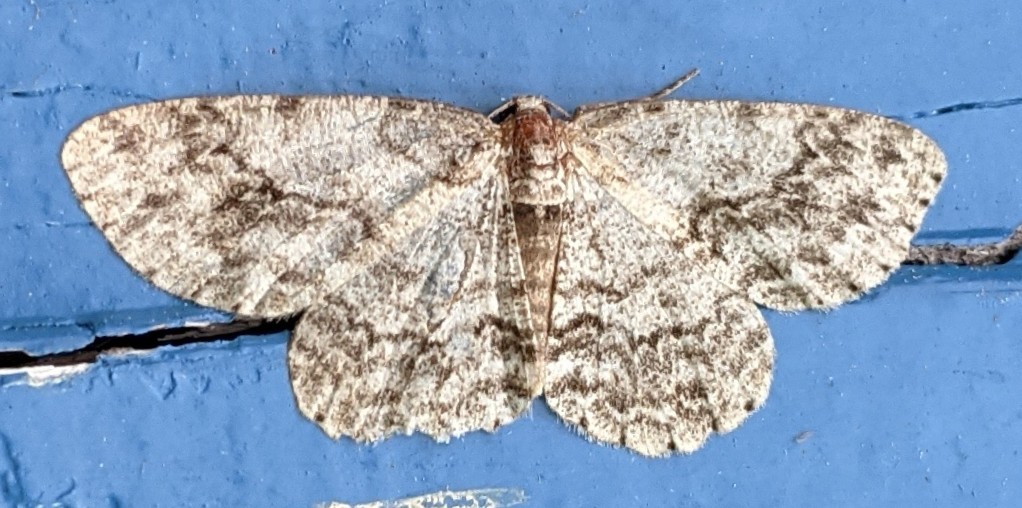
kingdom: Animalia
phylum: Arthropoda
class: Insecta
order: Lepidoptera
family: Geometridae
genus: Ectropis
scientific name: Ectropis crepuscularia
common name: Engrailed
